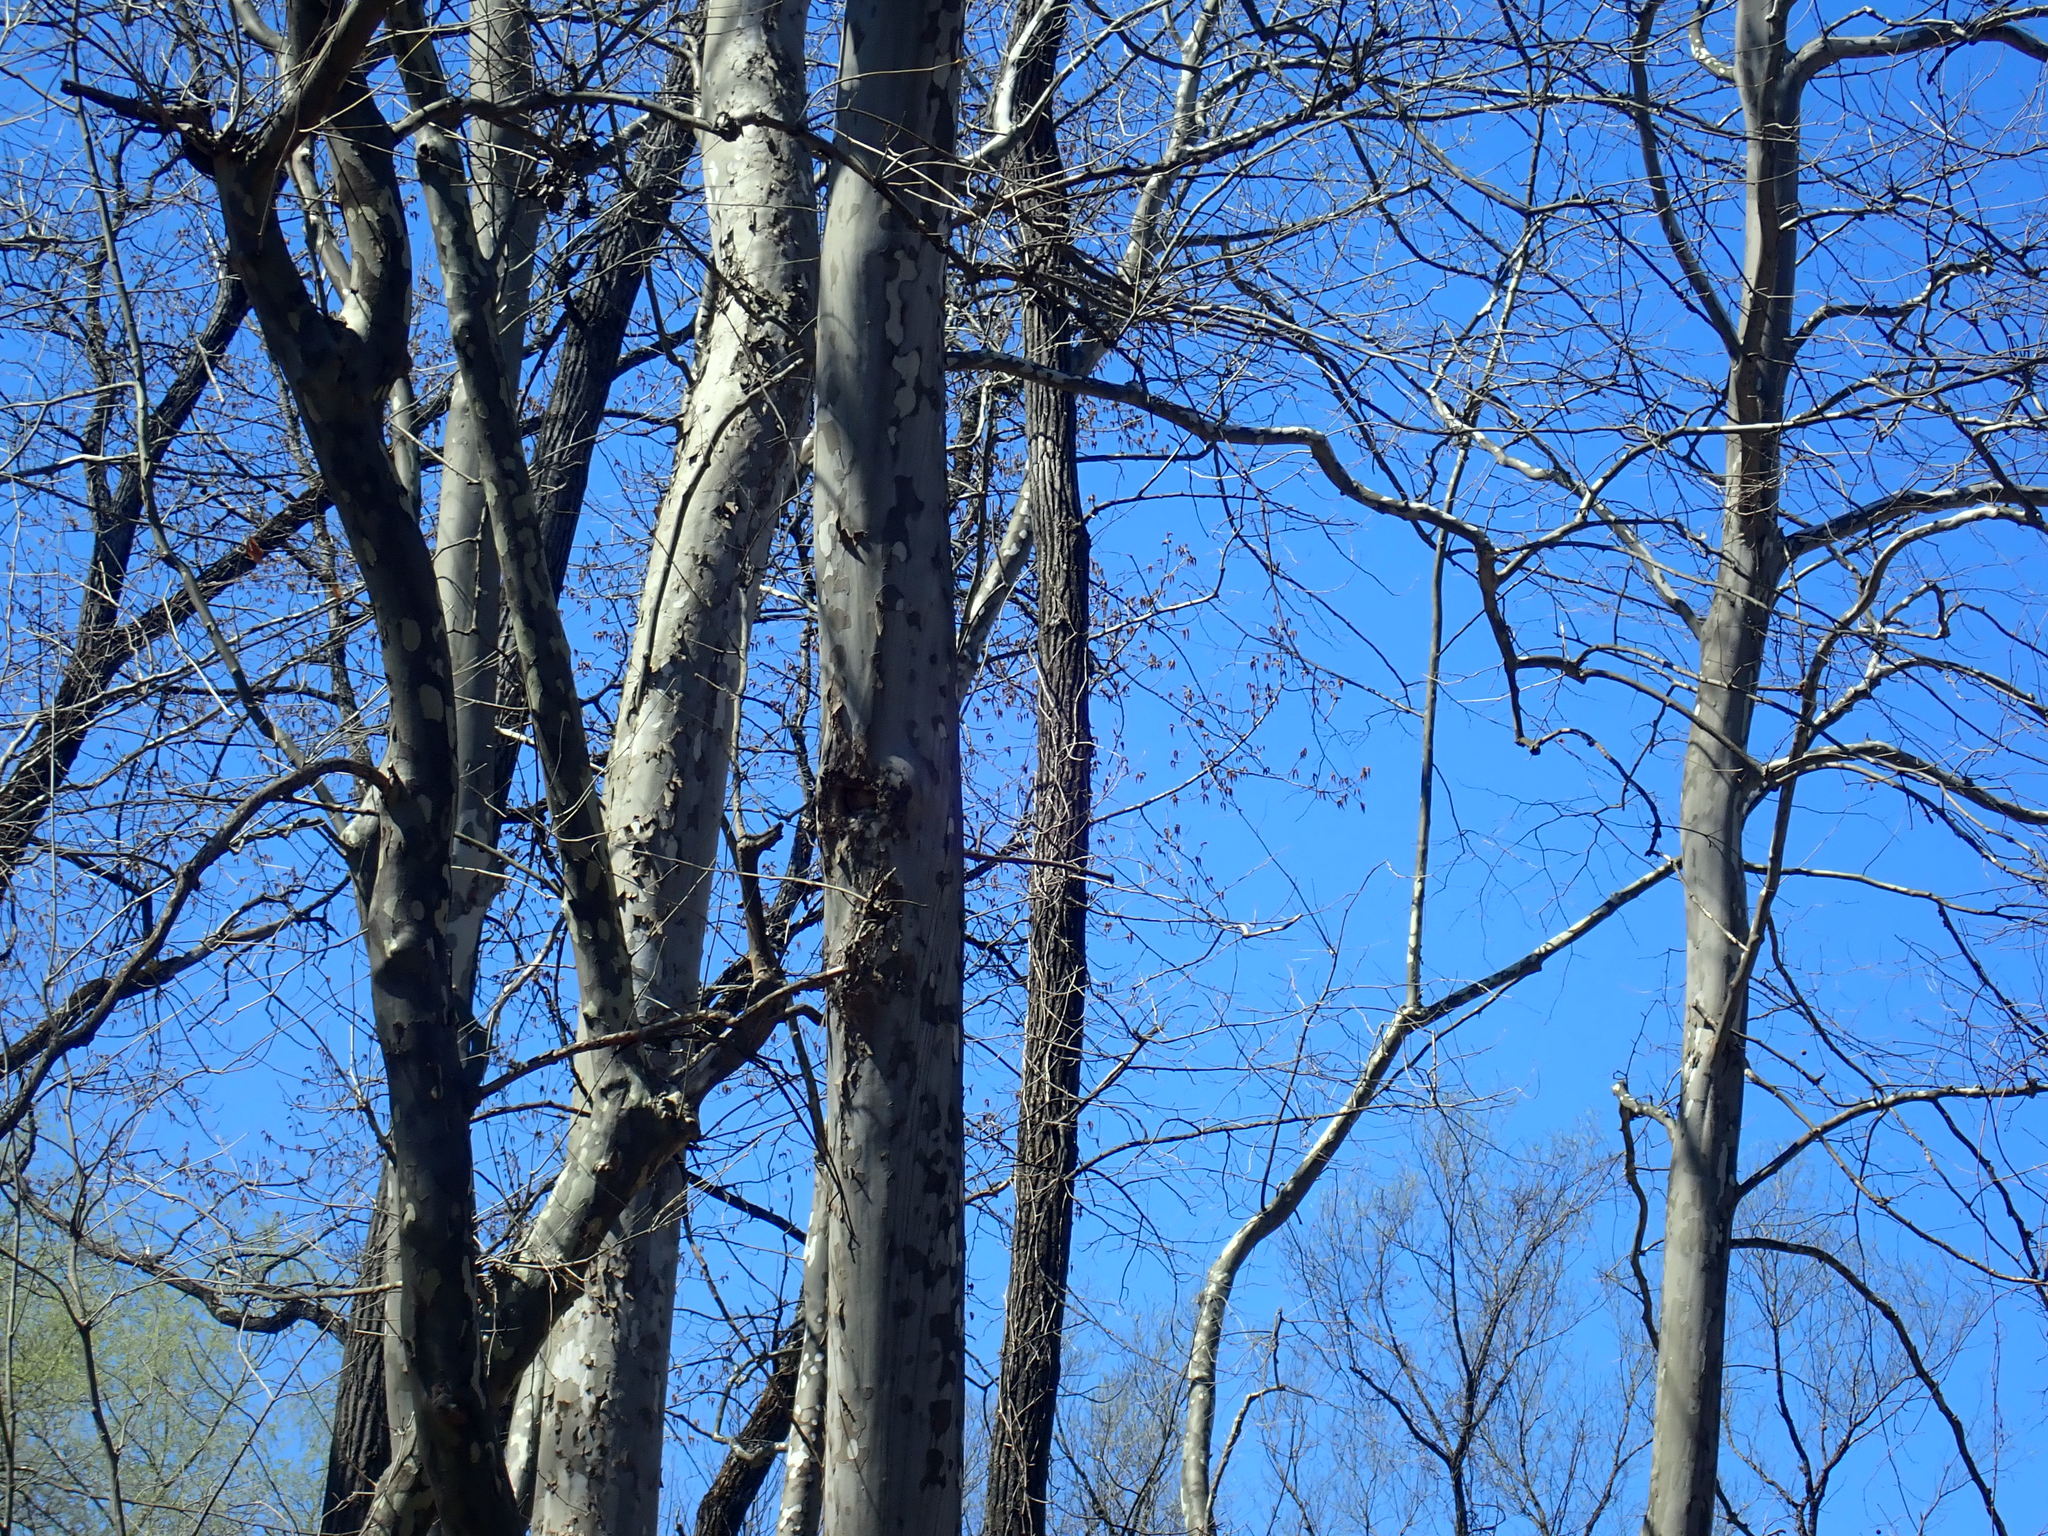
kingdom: Plantae
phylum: Tracheophyta
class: Magnoliopsida
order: Proteales
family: Platanaceae
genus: Platanus
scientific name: Platanus occidentalis
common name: American sycamore
